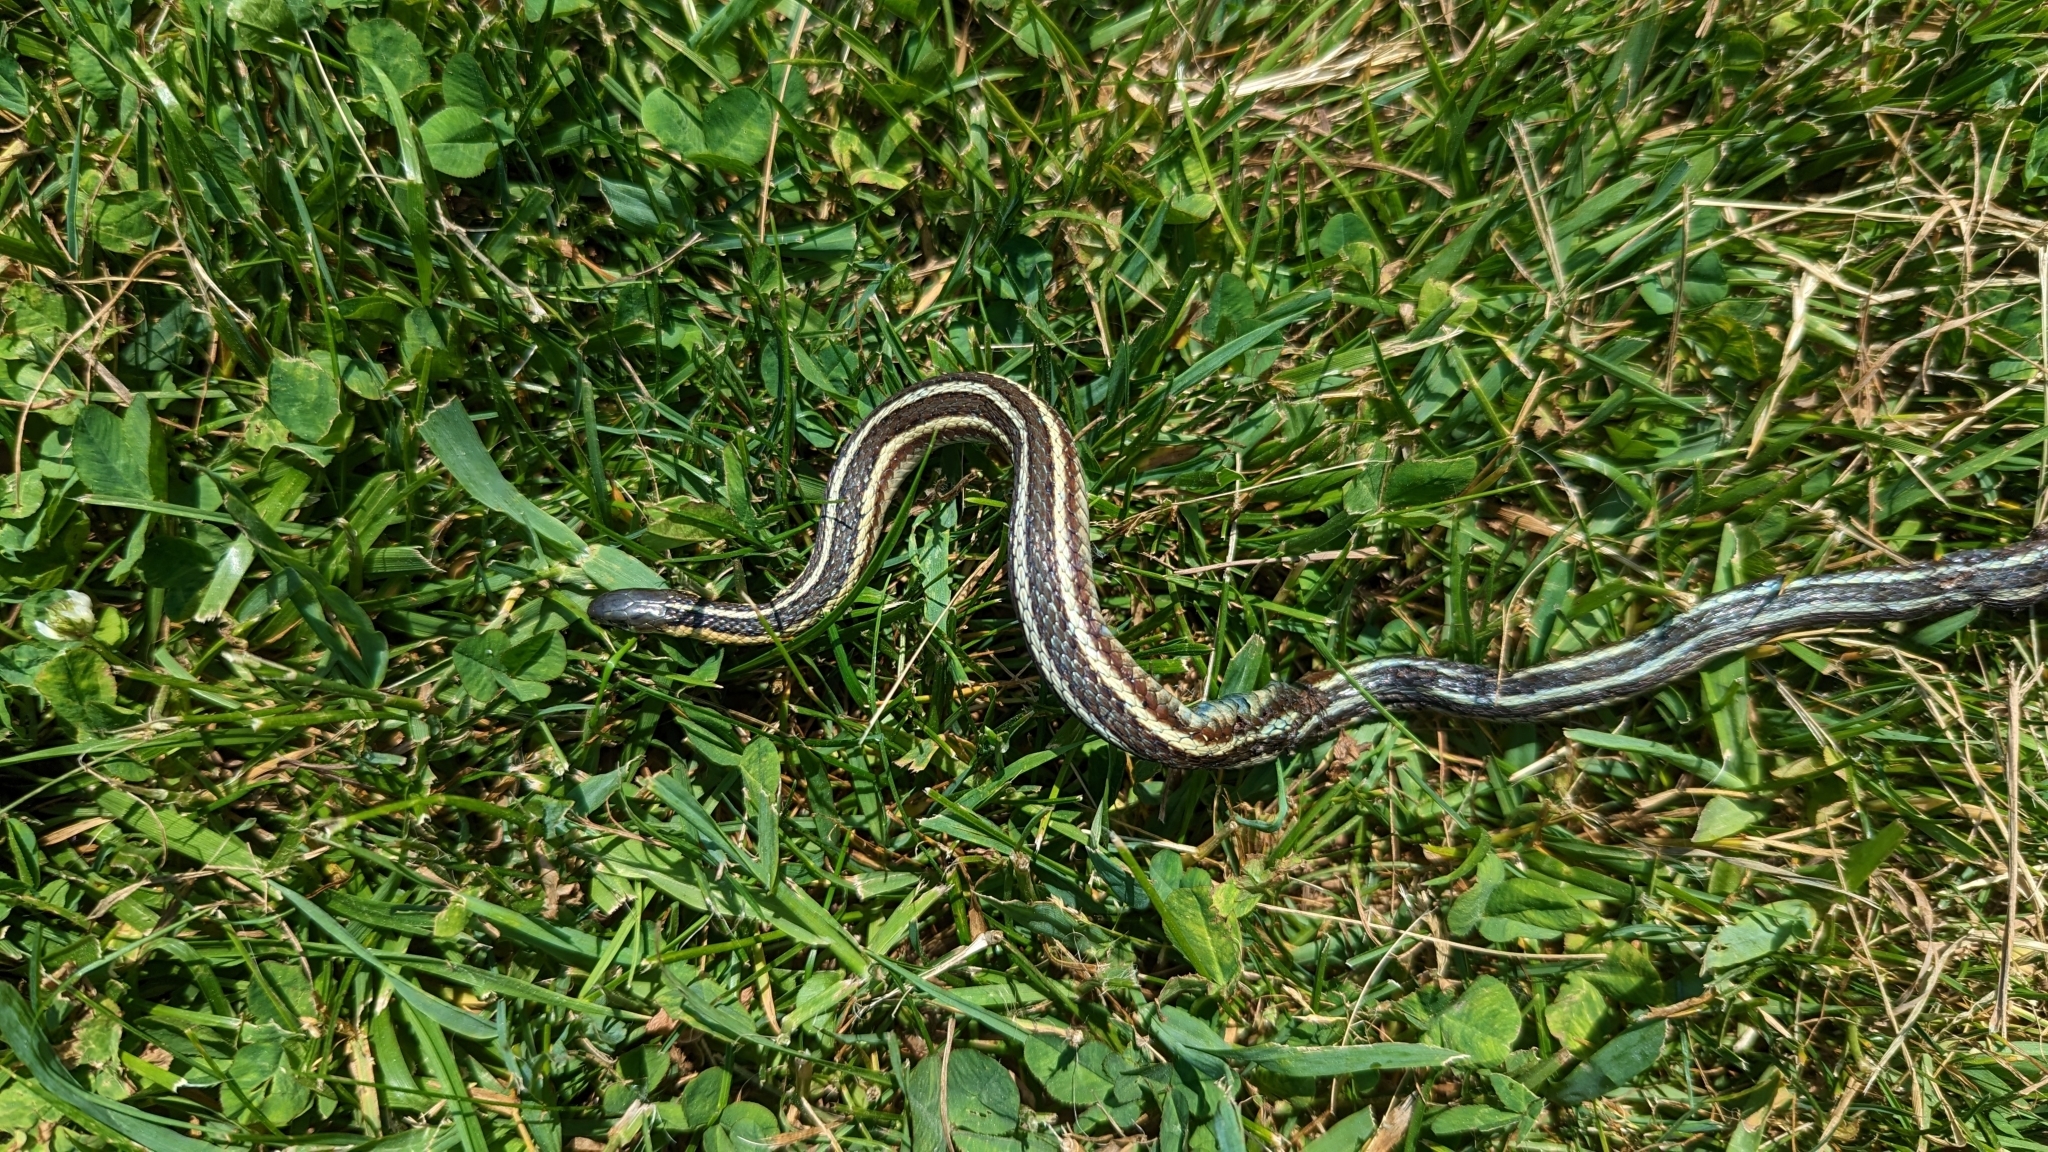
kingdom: Animalia
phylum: Chordata
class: Squamata
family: Colubridae
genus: Thamnophis
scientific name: Thamnophis butleri
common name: Butler's garter snake
